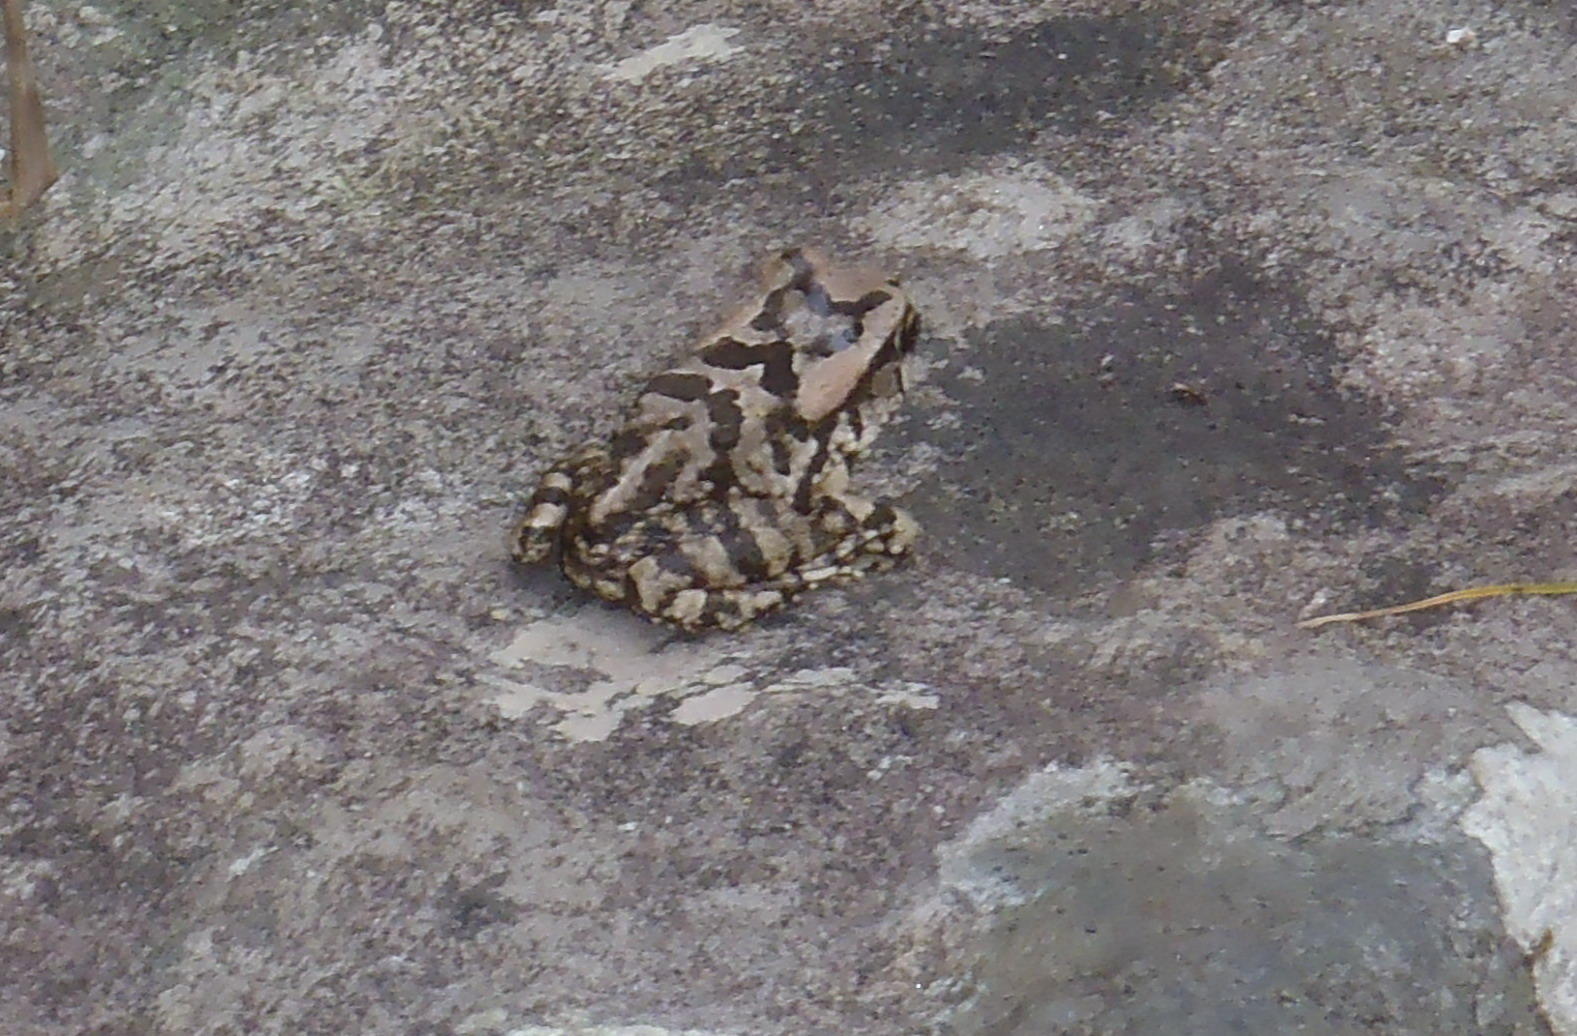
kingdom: Animalia
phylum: Chordata
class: Amphibia
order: Anura
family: Bufonidae
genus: Sclerophrys
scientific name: Sclerophrys capensis
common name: Ranger’s toad
